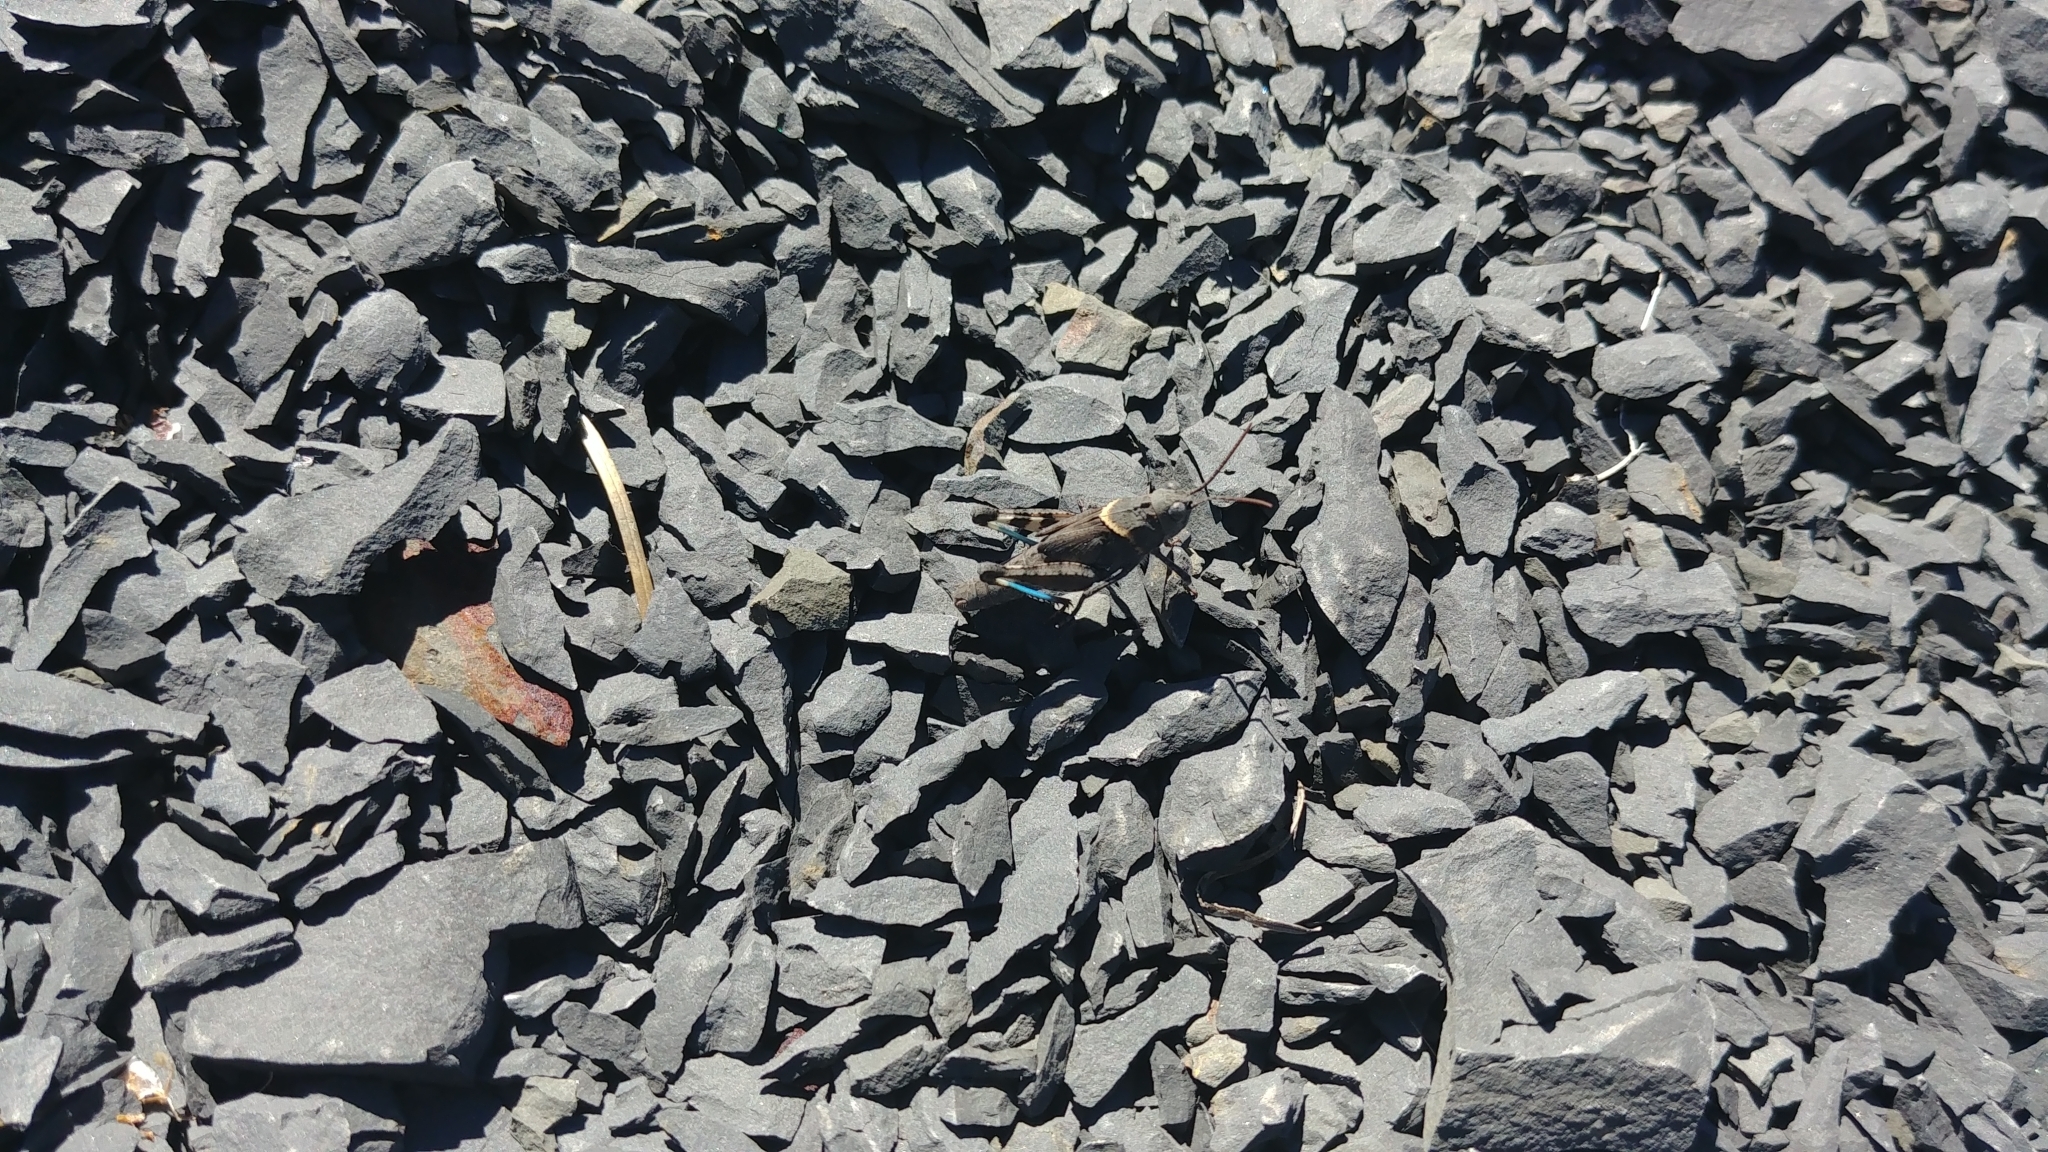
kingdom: Animalia
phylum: Arthropoda
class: Insecta
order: Orthoptera
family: Acrididae
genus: Trimerotropis
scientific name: Trimerotropis fontana
